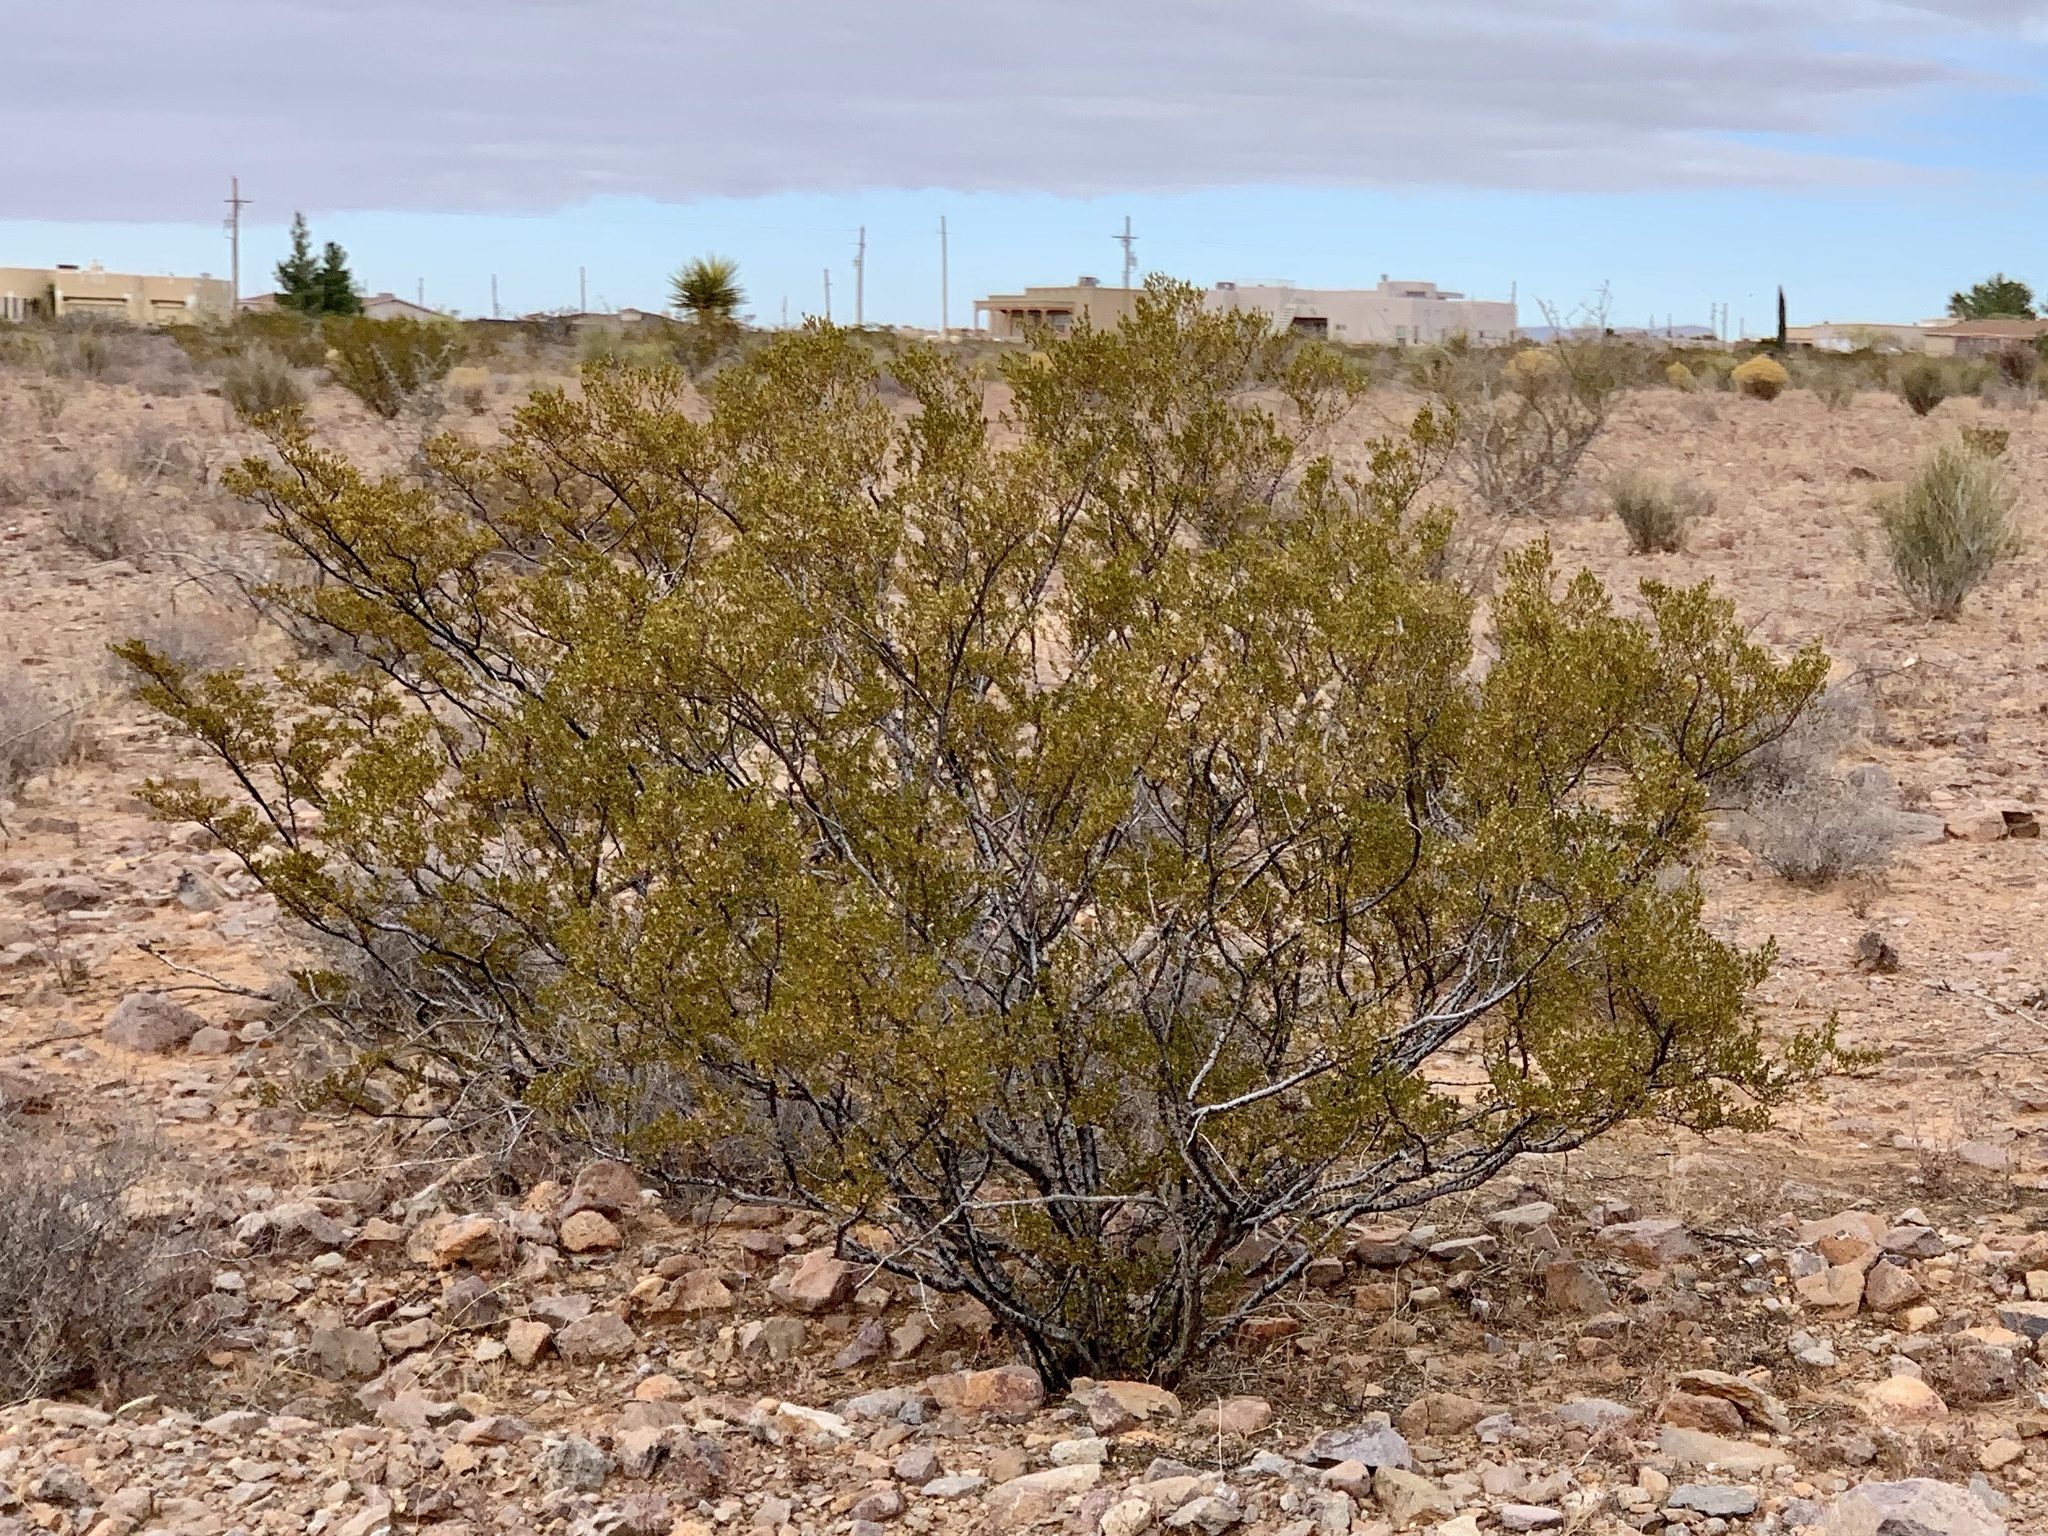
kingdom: Plantae
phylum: Tracheophyta
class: Magnoliopsida
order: Zygophyllales
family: Zygophyllaceae
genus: Larrea
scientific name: Larrea tridentata
